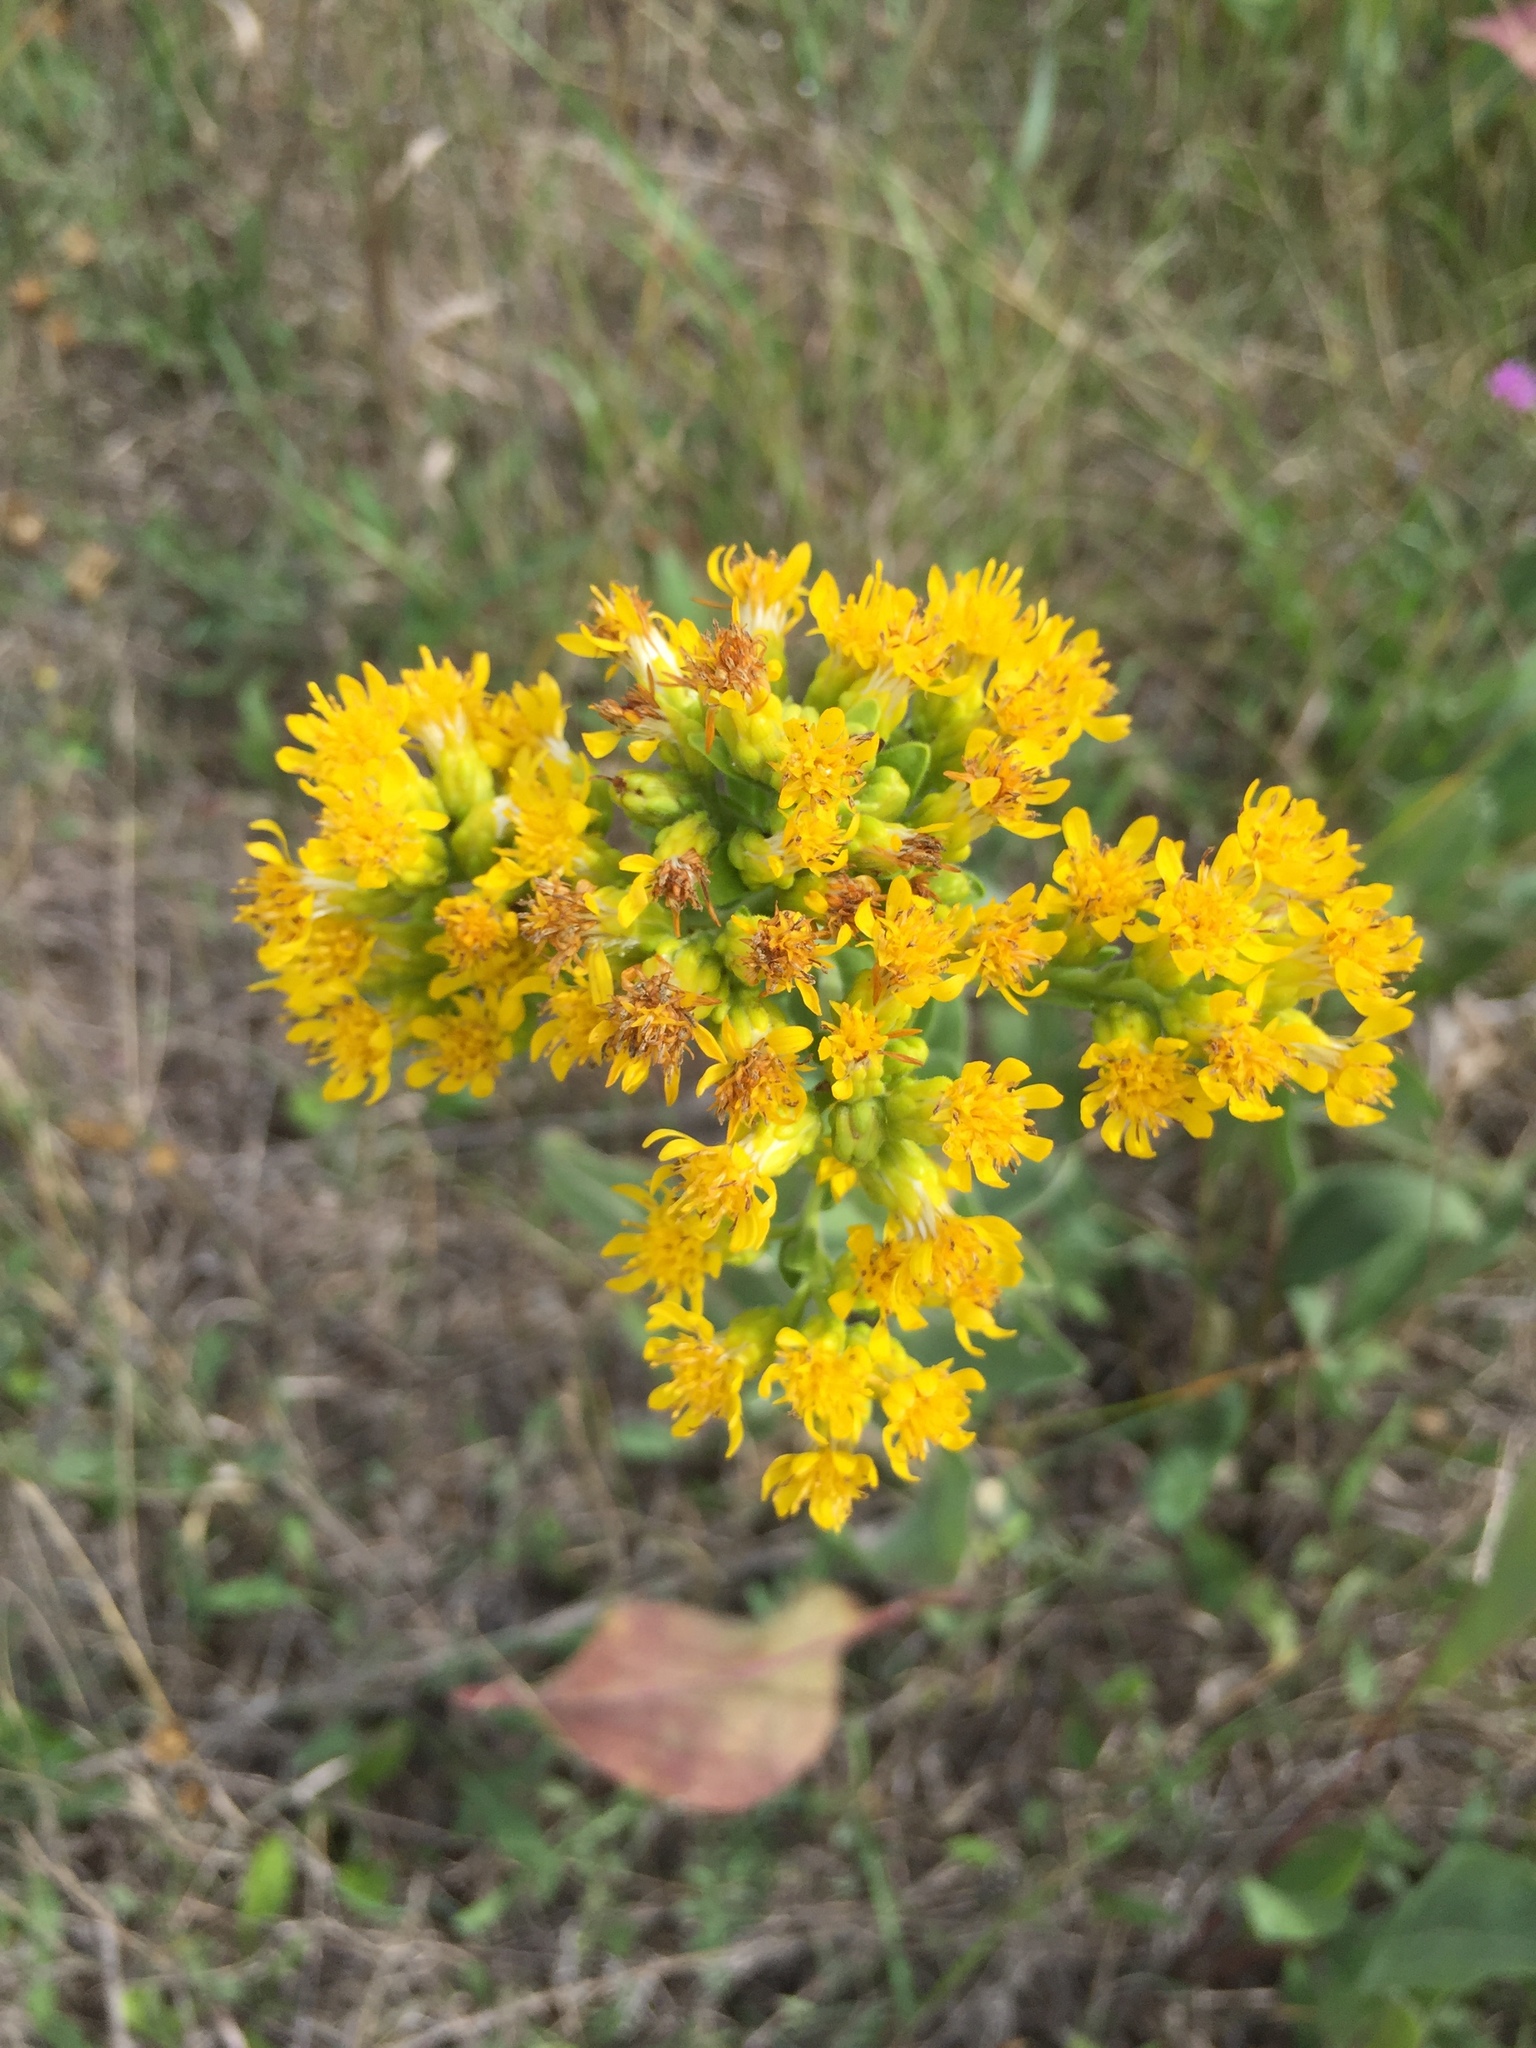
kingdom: Plantae
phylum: Tracheophyta
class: Magnoliopsida
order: Asterales
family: Asteraceae
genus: Solidago
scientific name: Solidago rigida
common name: Rigid goldenrod
